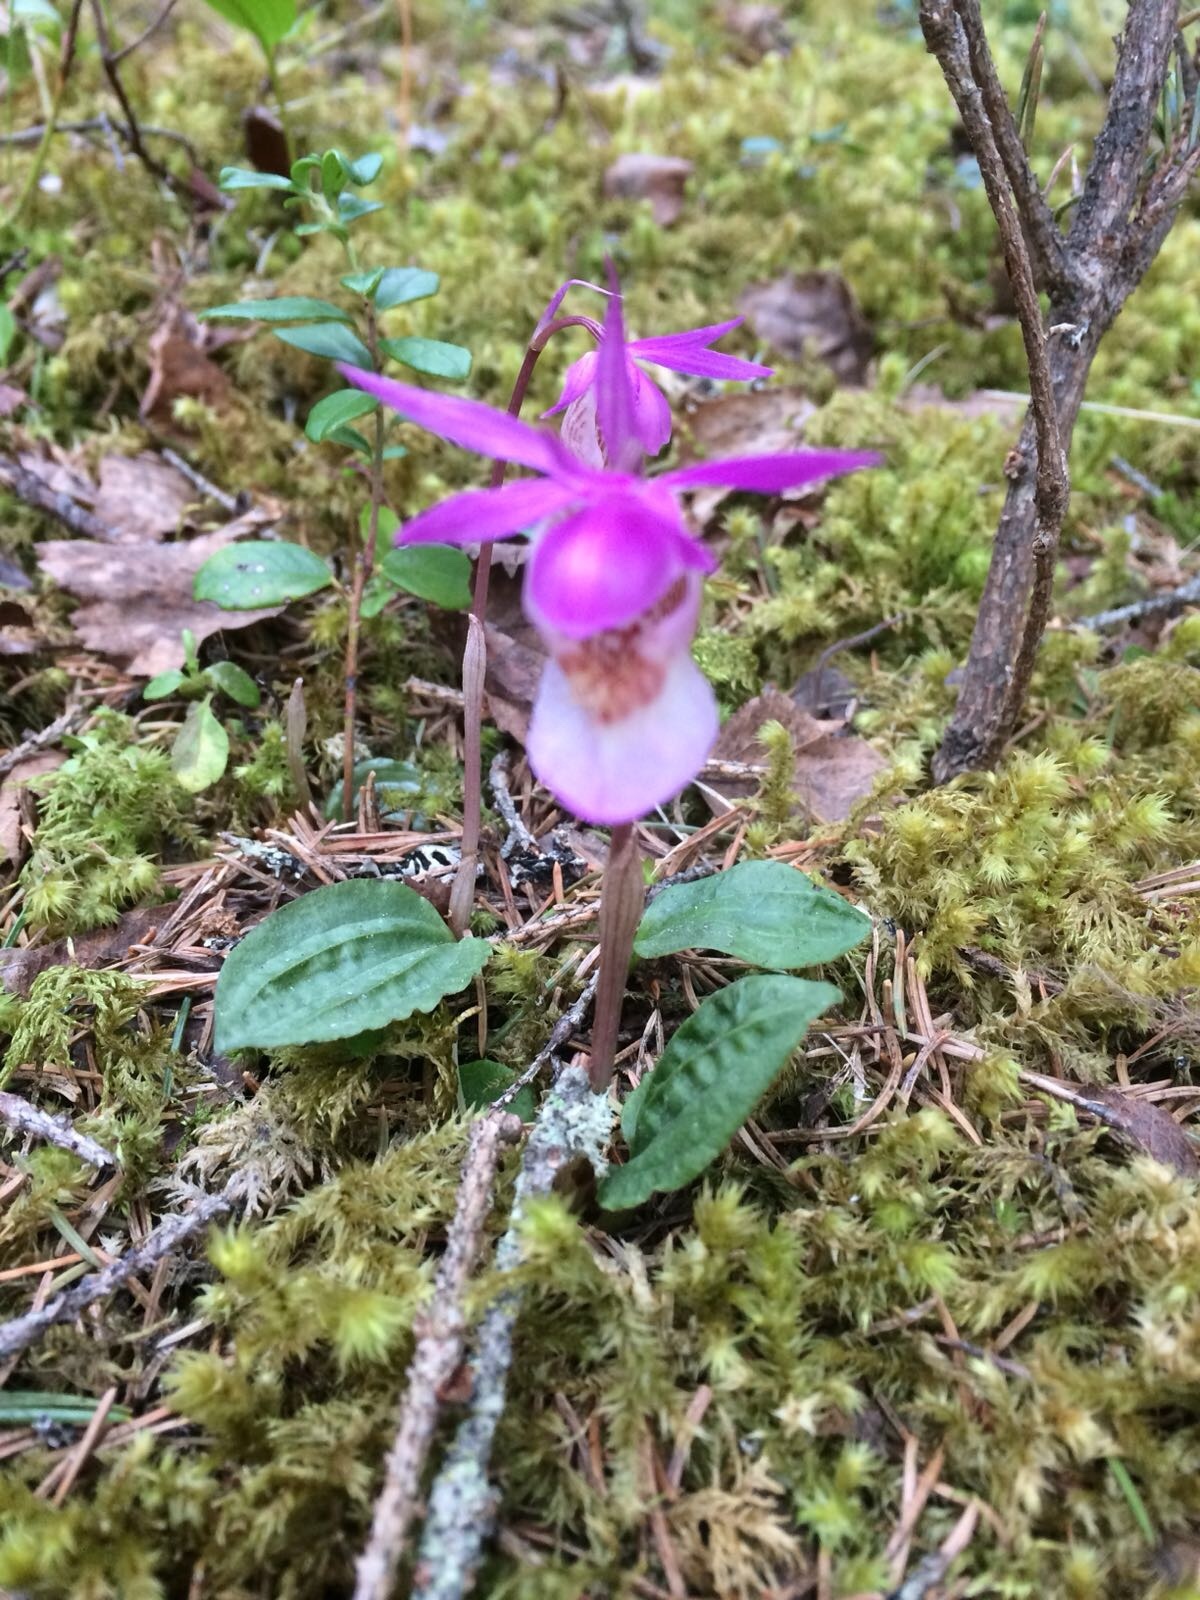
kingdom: Plantae
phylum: Bryophyta
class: Bryopsida
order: Hypnales
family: Hylocomiaceae
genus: Hylocomiadelphus
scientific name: Hylocomiadelphus triquetrus
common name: Rough goose neck moss
